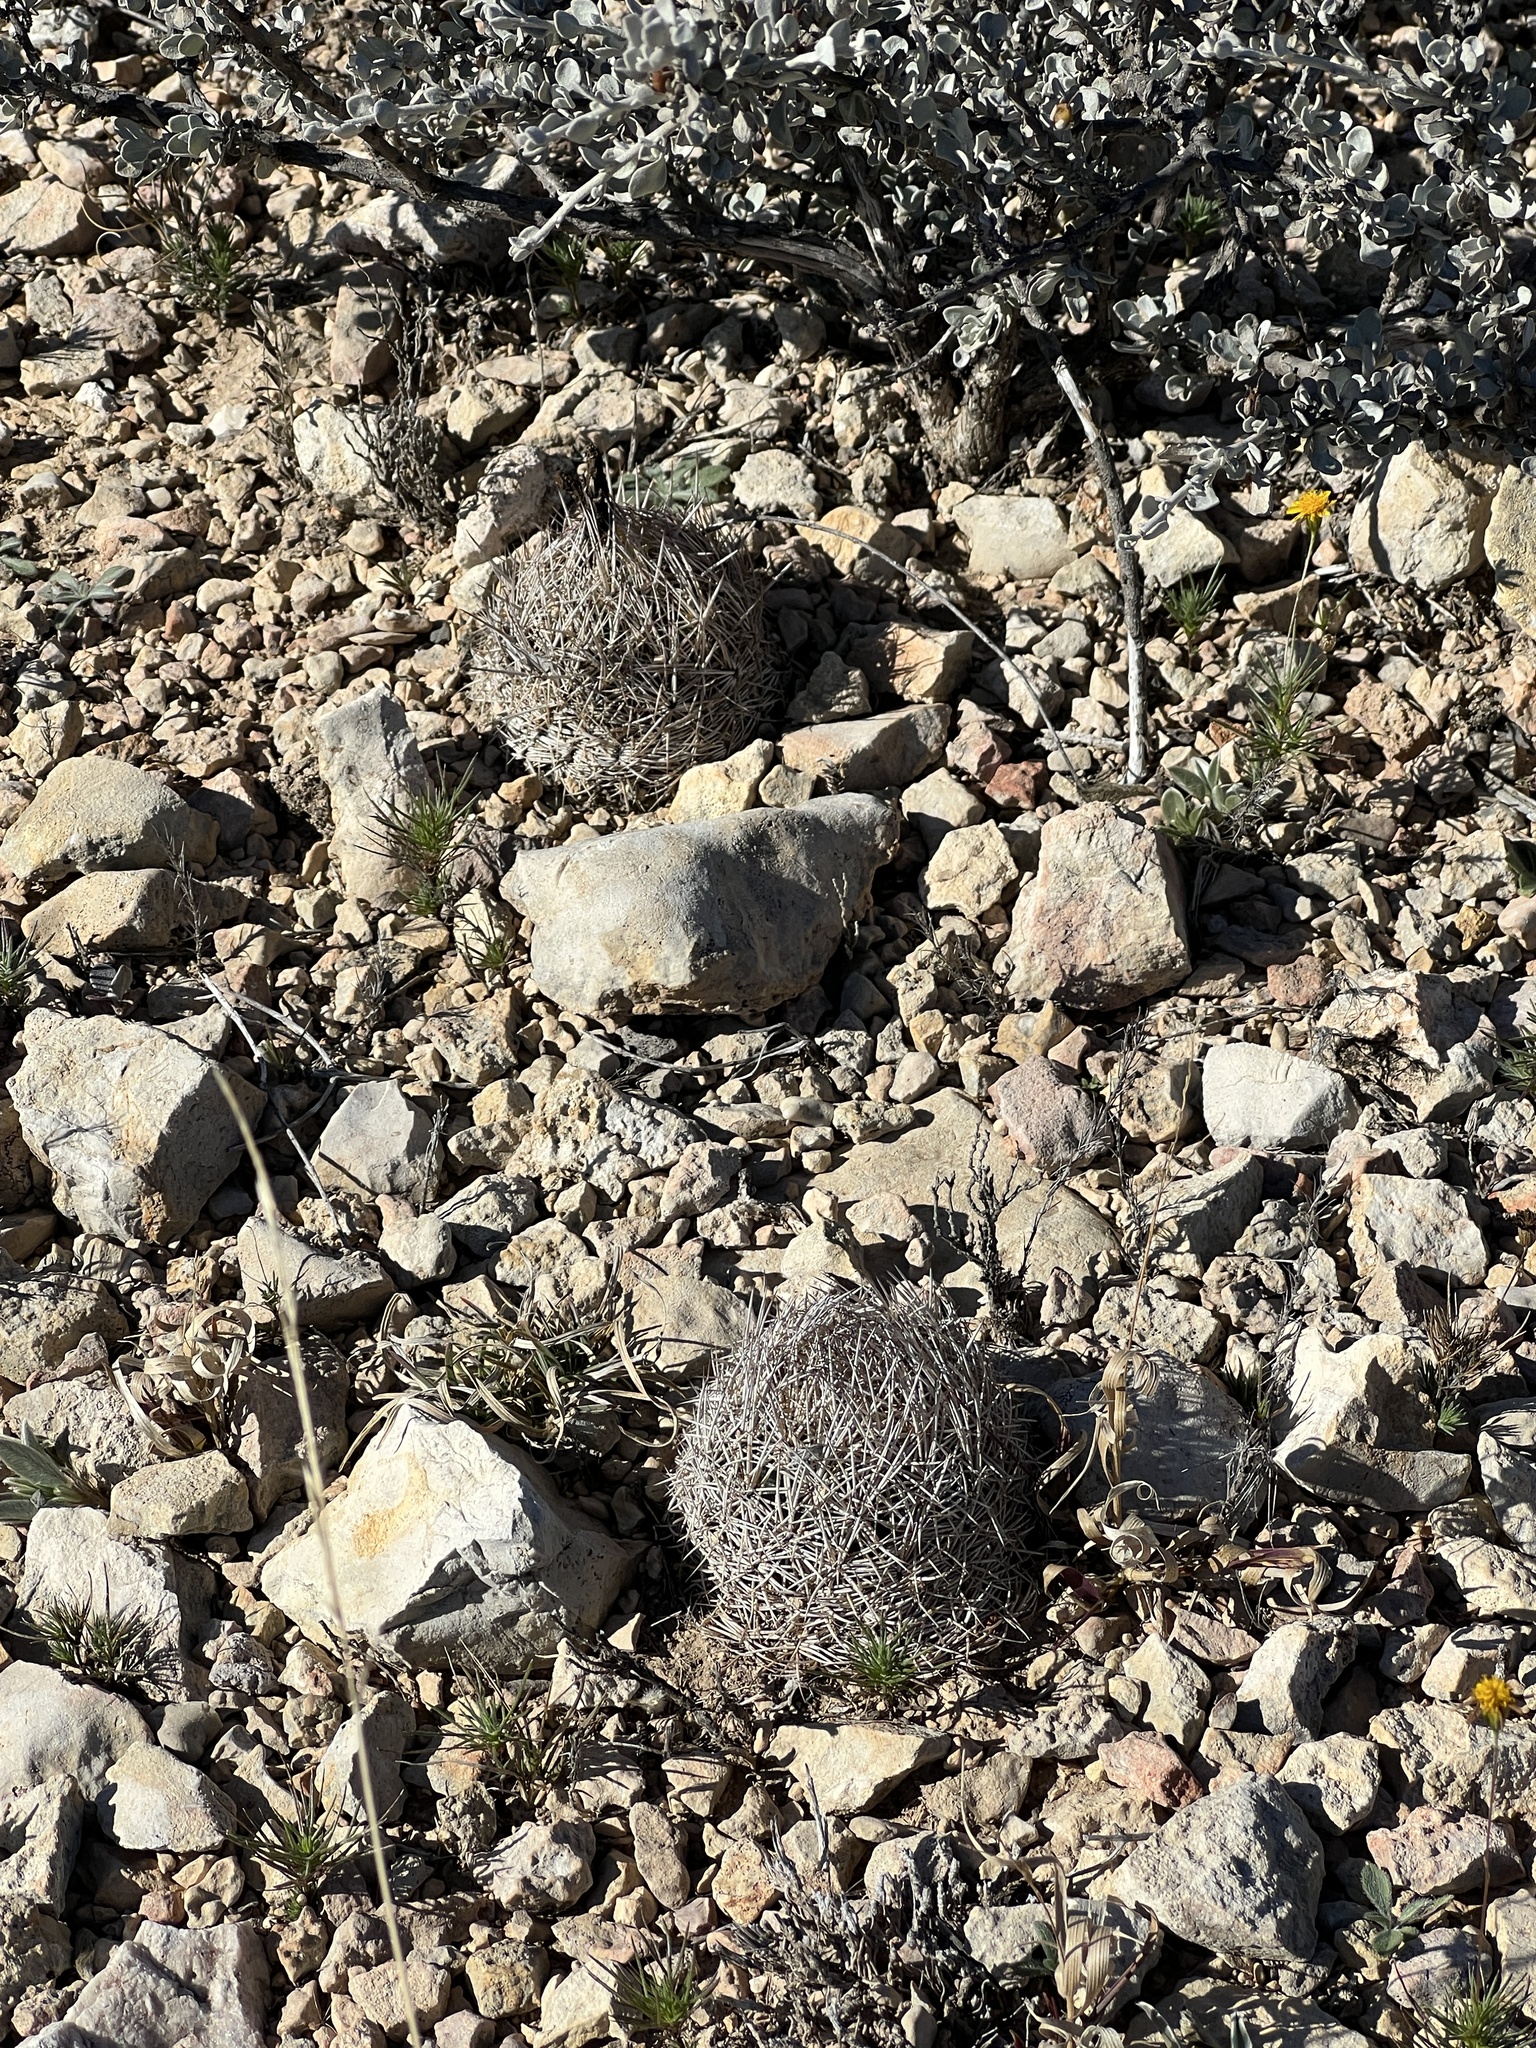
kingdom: Plantae
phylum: Tracheophyta
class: Magnoliopsida
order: Caryophyllales
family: Cactaceae
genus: Coryphantha
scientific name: Coryphantha echinus
